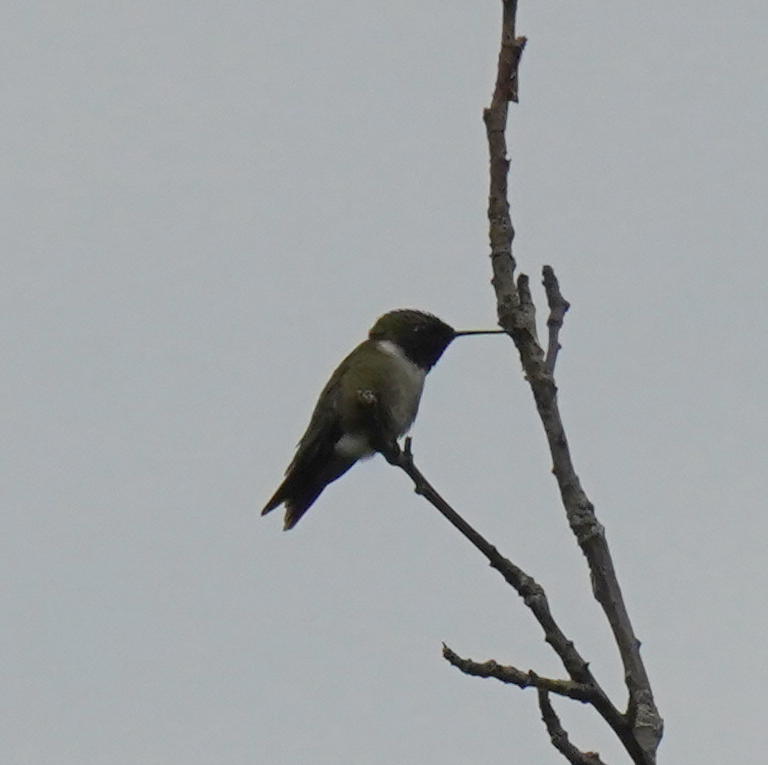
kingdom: Animalia
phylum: Chordata
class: Aves
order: Apodiformes
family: Trochilidae
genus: Archilochus
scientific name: Archilochus colubris
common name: Ruby-throated hummingbird
